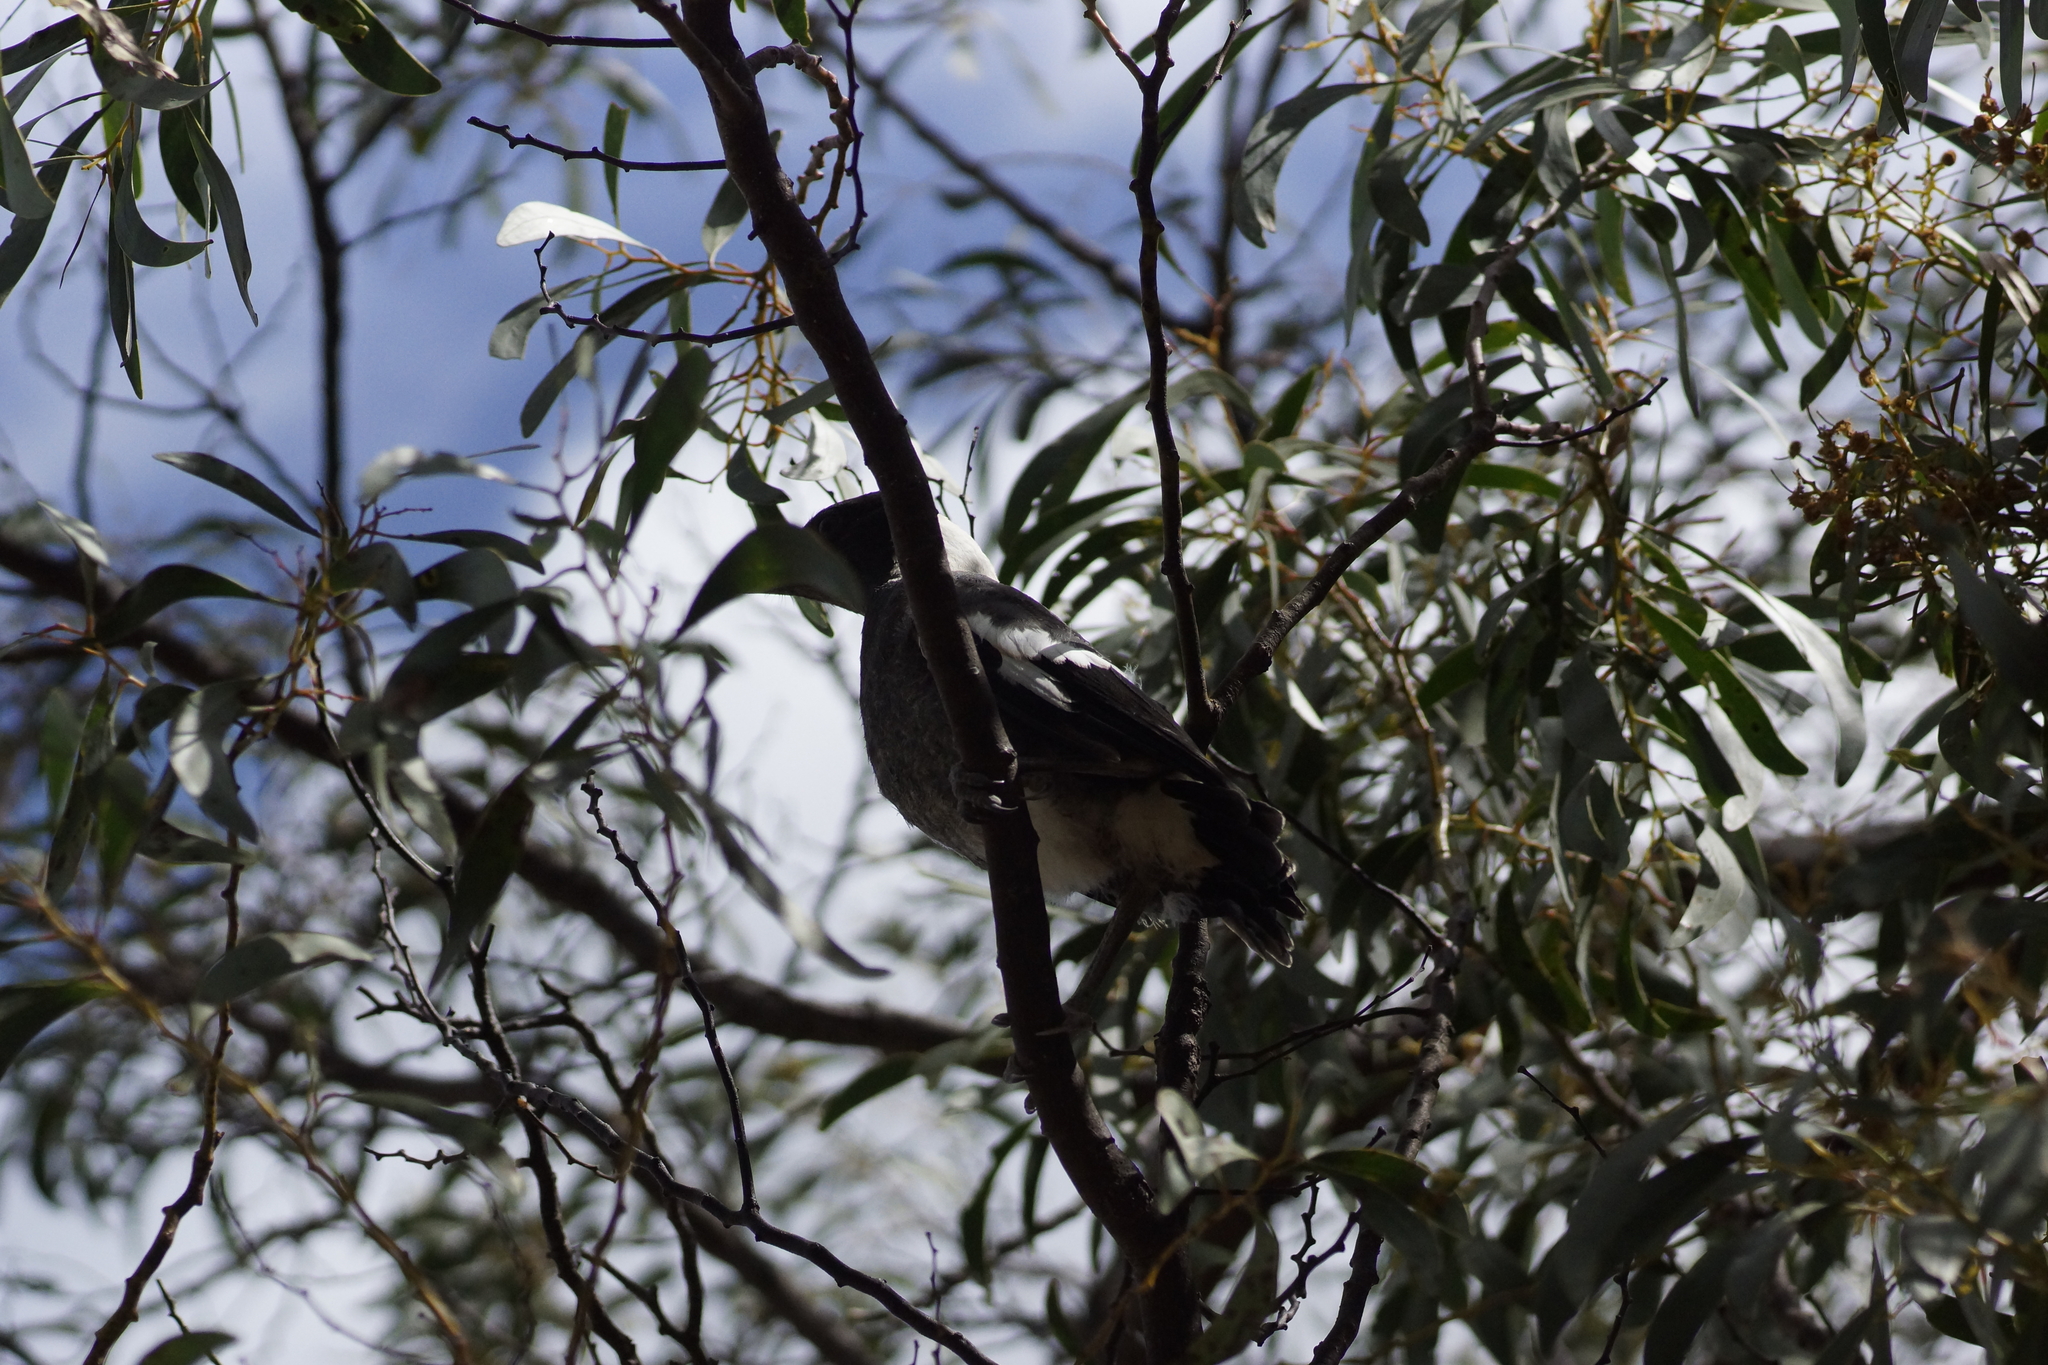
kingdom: Animalia
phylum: Chordata
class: Aves
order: Passeriformes
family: Cracticidae
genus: Gymnorhina
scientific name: Gymnorhina tibicen
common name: Australian magpie
